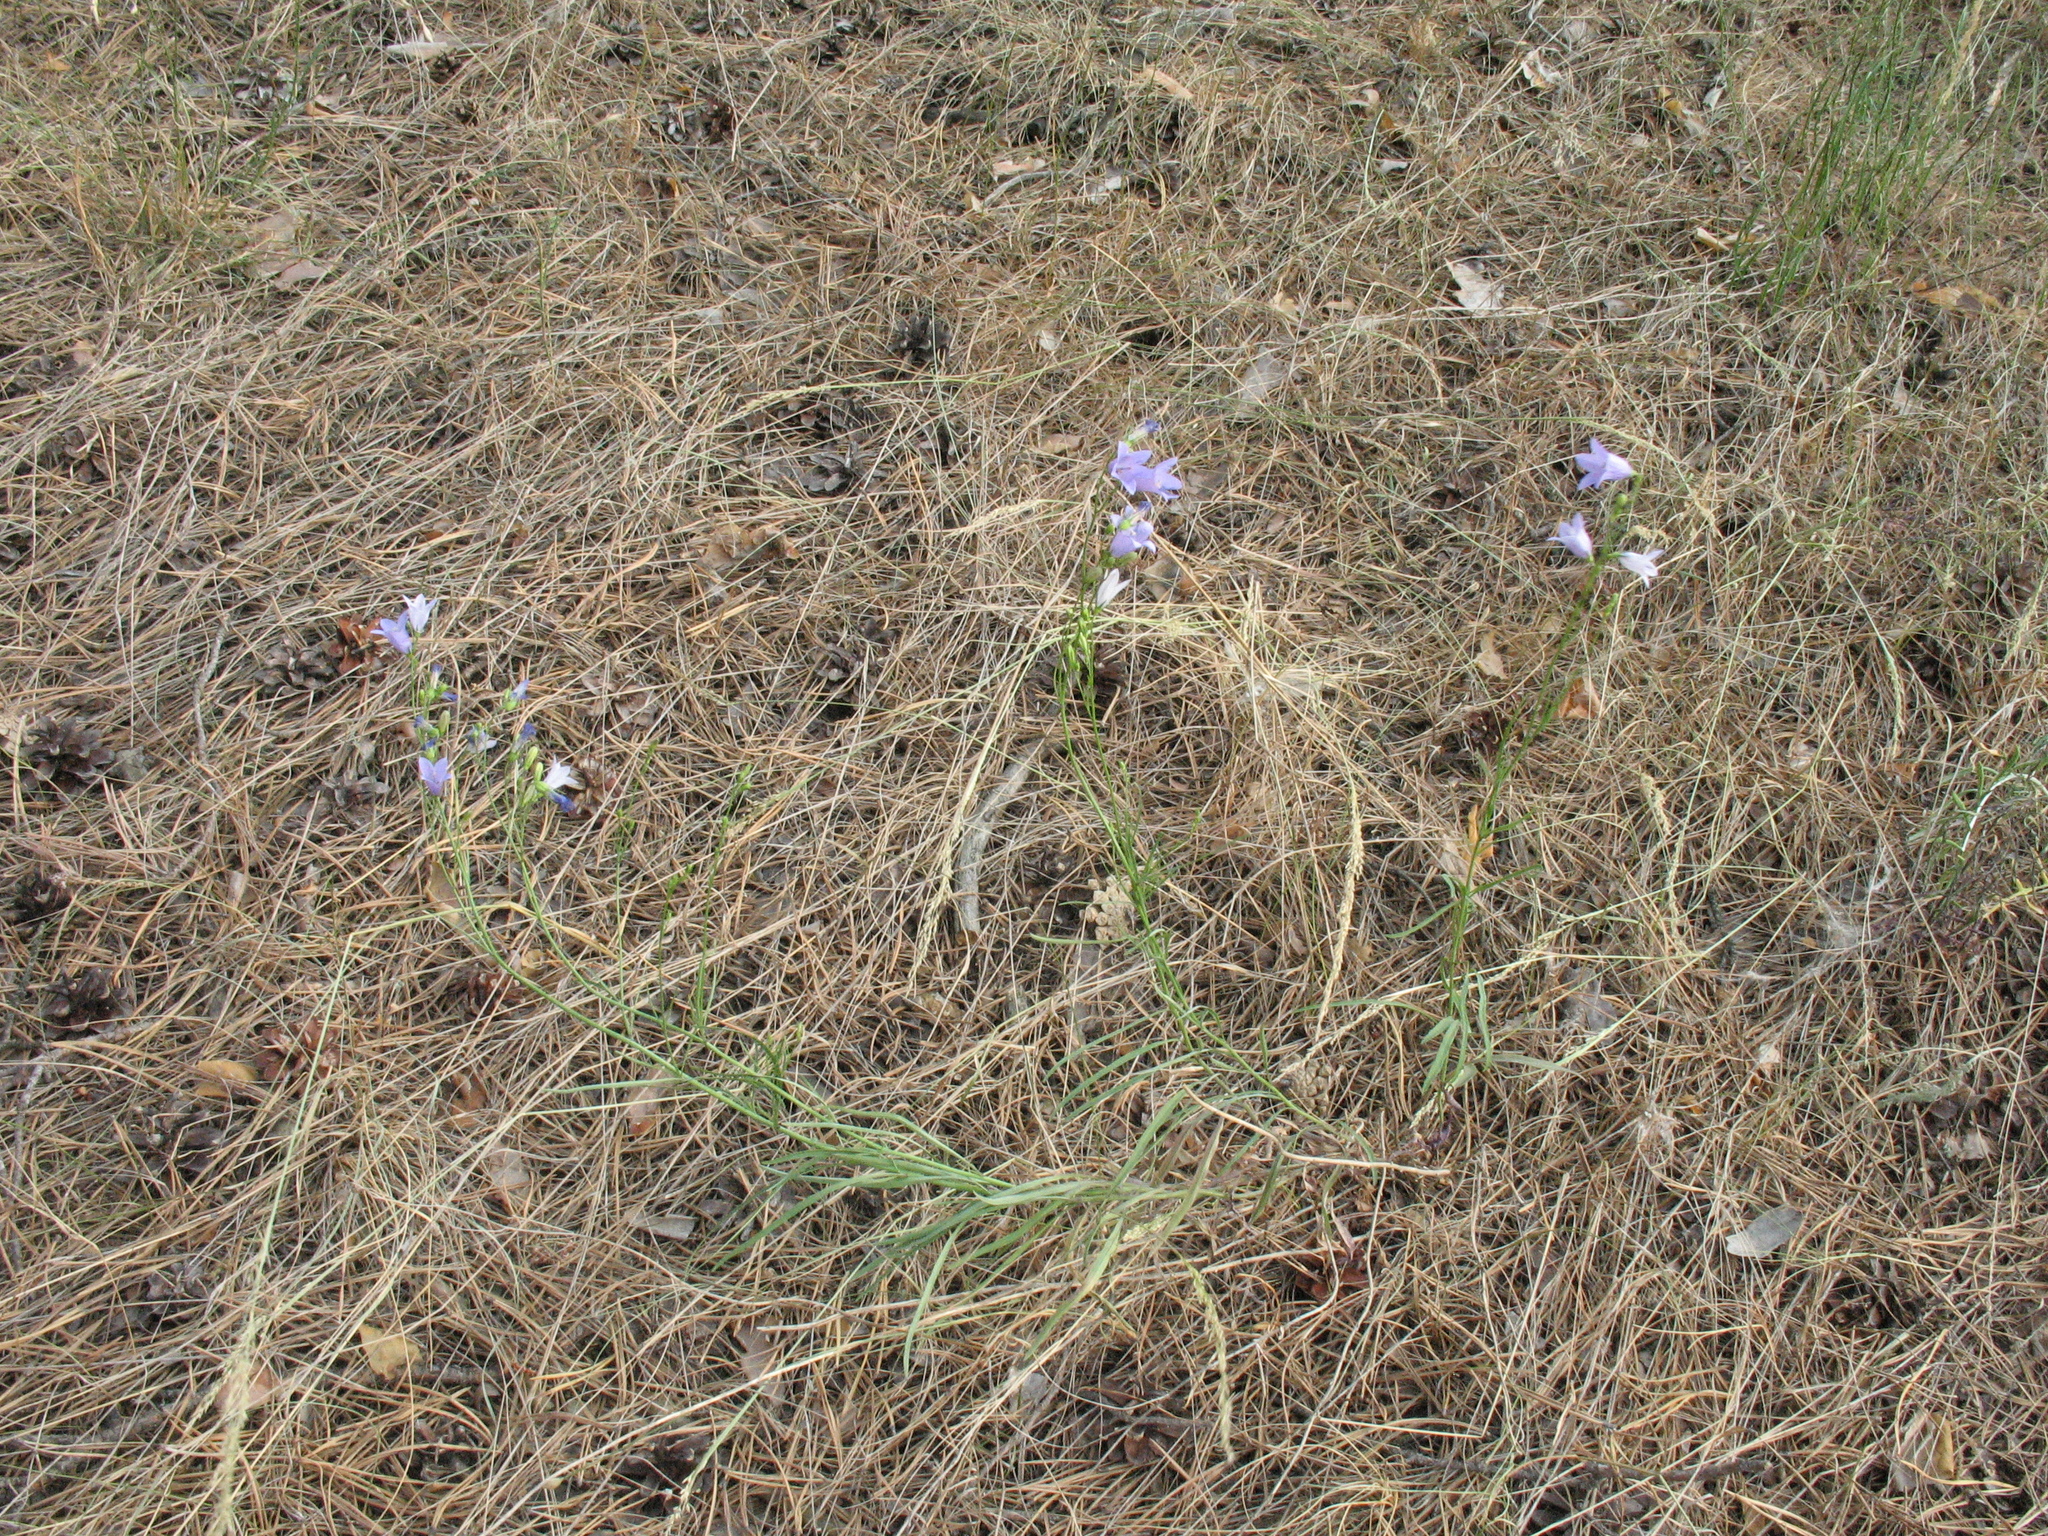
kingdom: Plantae
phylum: Tracheophyta
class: Magnoliopsida
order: Asterales
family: Campanulaceae
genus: Campanula
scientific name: Campanula rotundifolia
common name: Harebell
